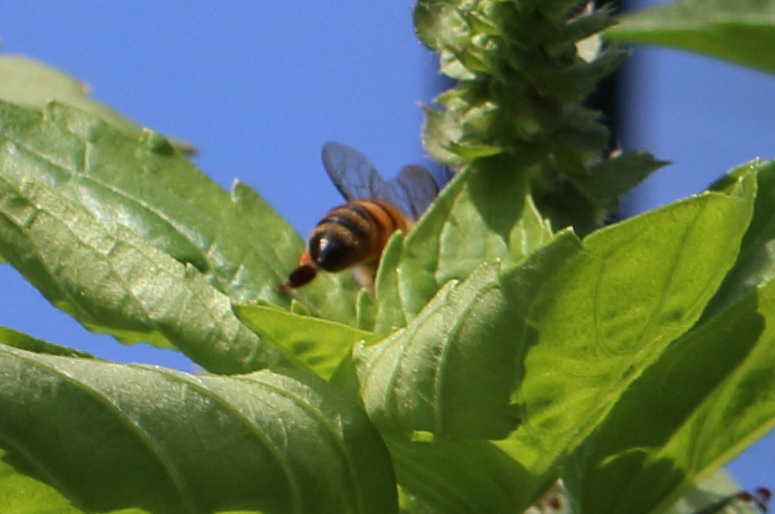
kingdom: Animalia
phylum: Arthropoda
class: Insecta
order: Hymenoptera
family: Apidae
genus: Apis
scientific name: Apis mellifera
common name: Honey bee
